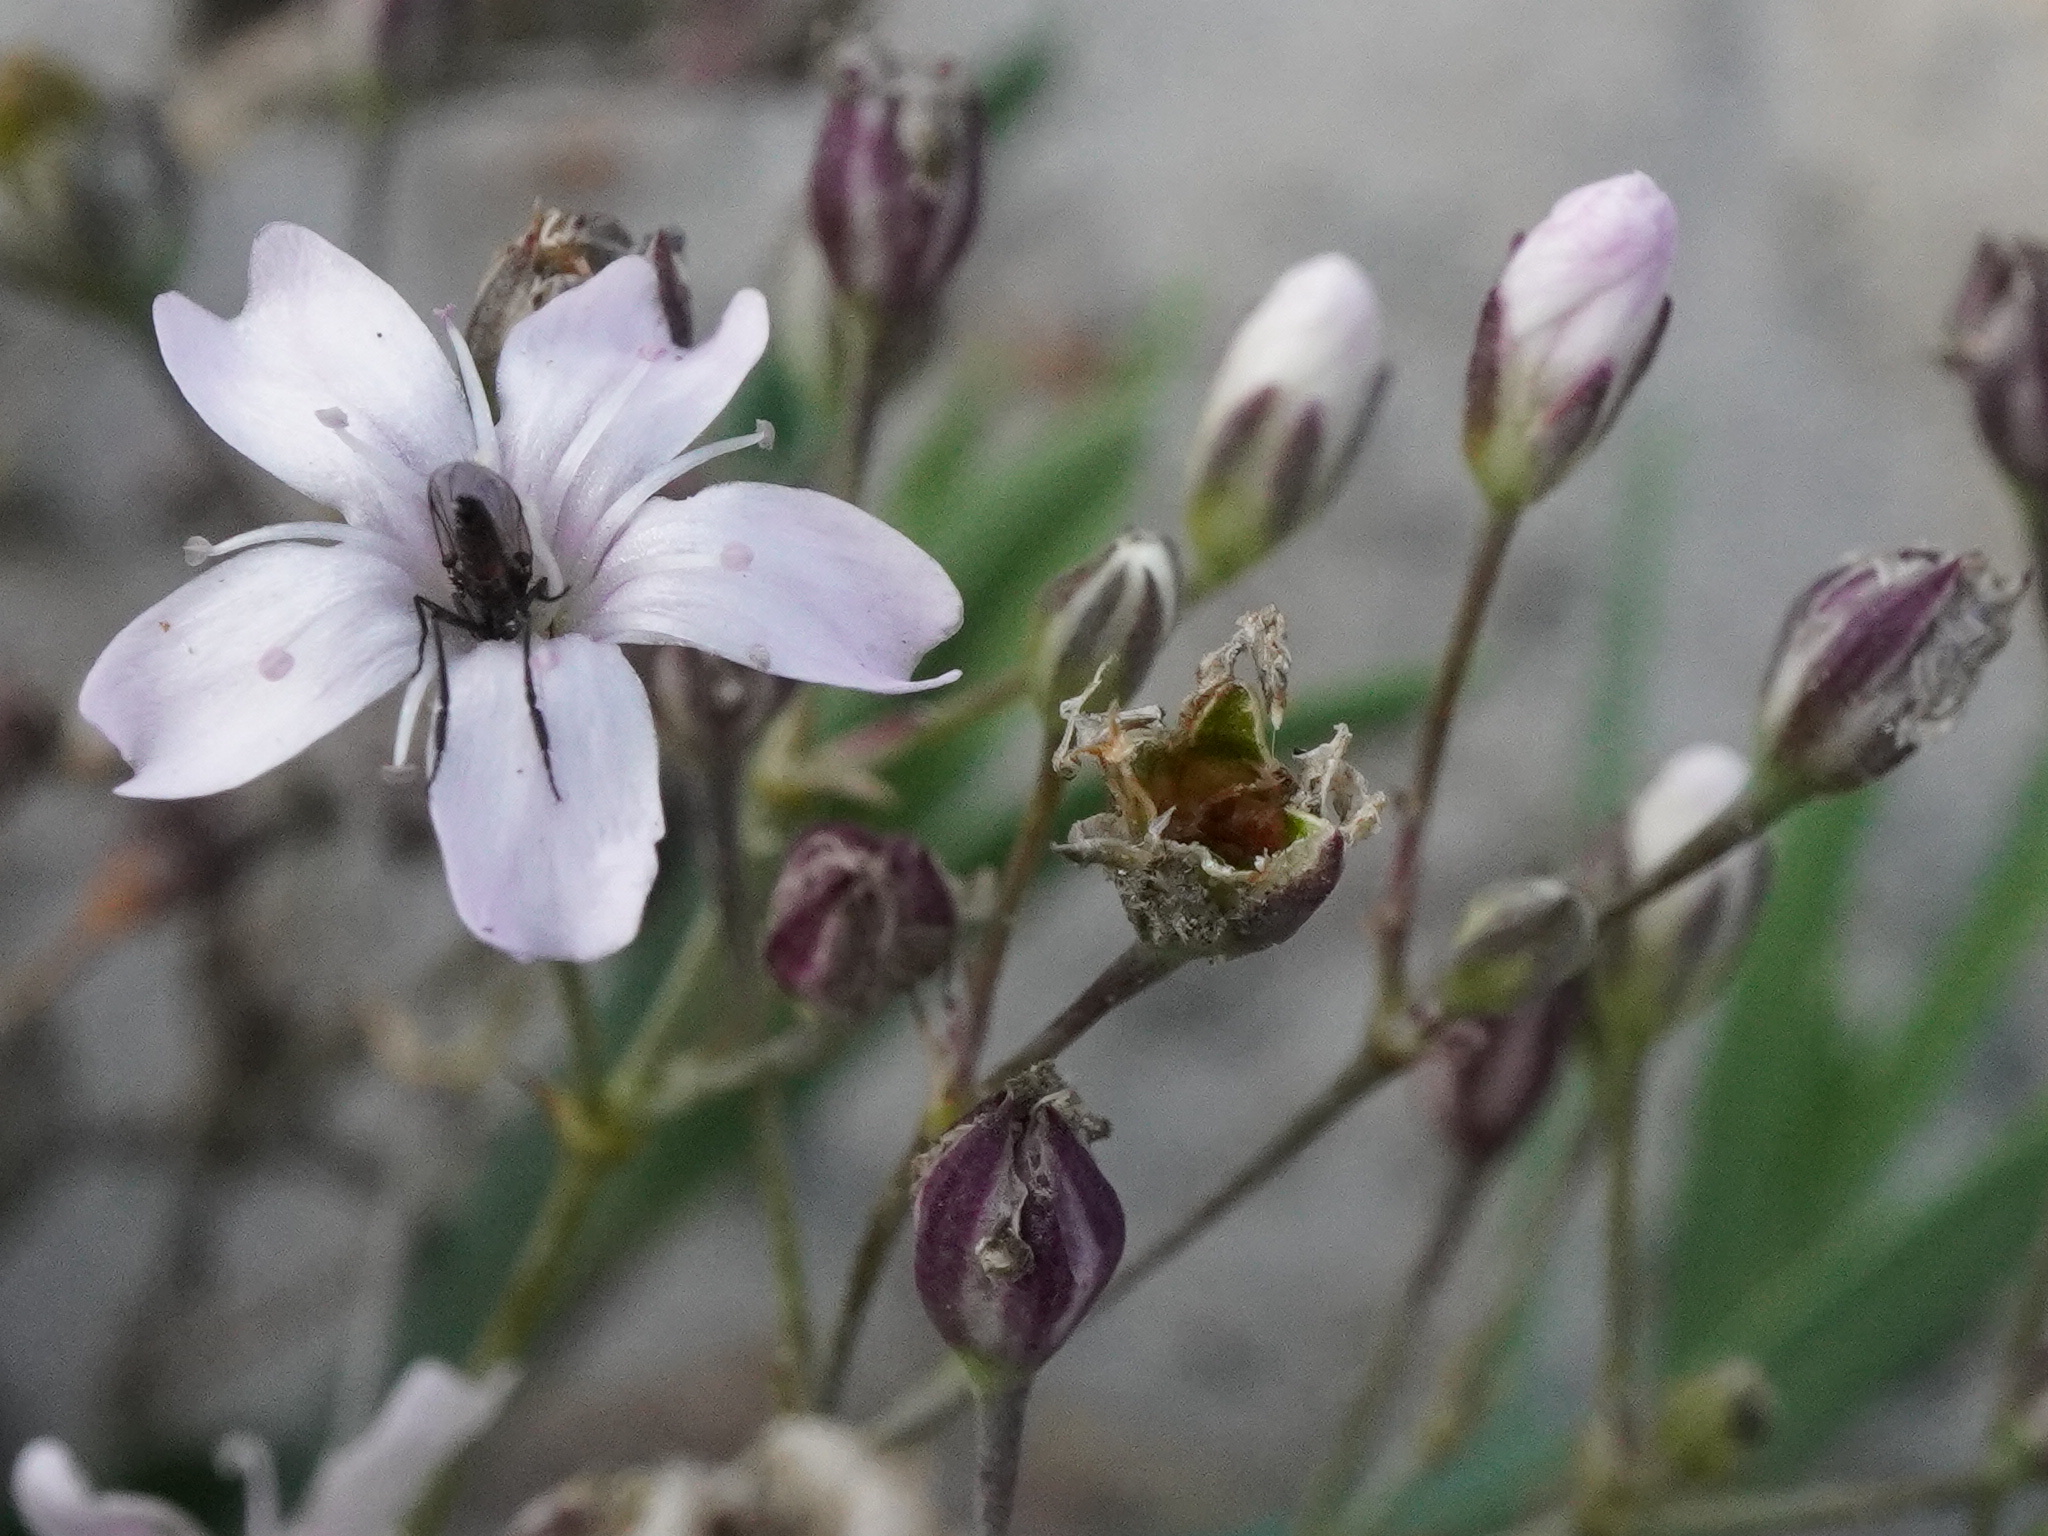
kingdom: Plantae
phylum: Tracheophyta
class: Magnoliopsida
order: Caryophyllales
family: Caryophyllaceae
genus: Gypsophila
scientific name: Gypsophila repens
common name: Creeping baby's-breath
